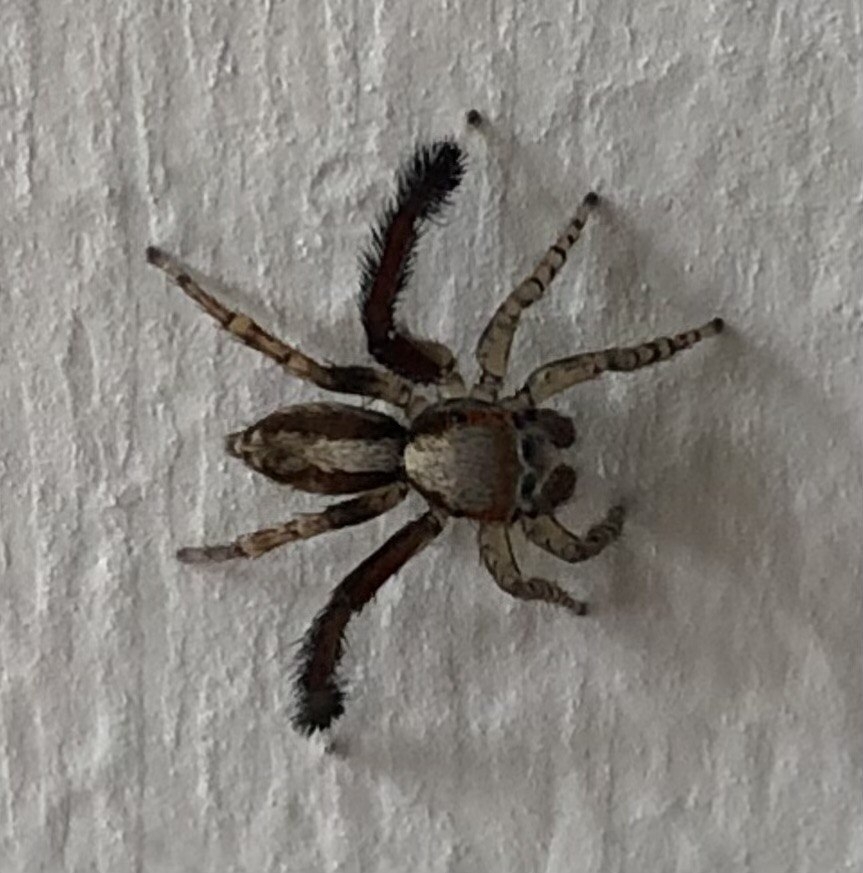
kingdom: Animalia
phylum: Arthropoda
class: Arachnida
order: Araneae
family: Salticidae
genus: Saitis
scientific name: Saitis barbipes
